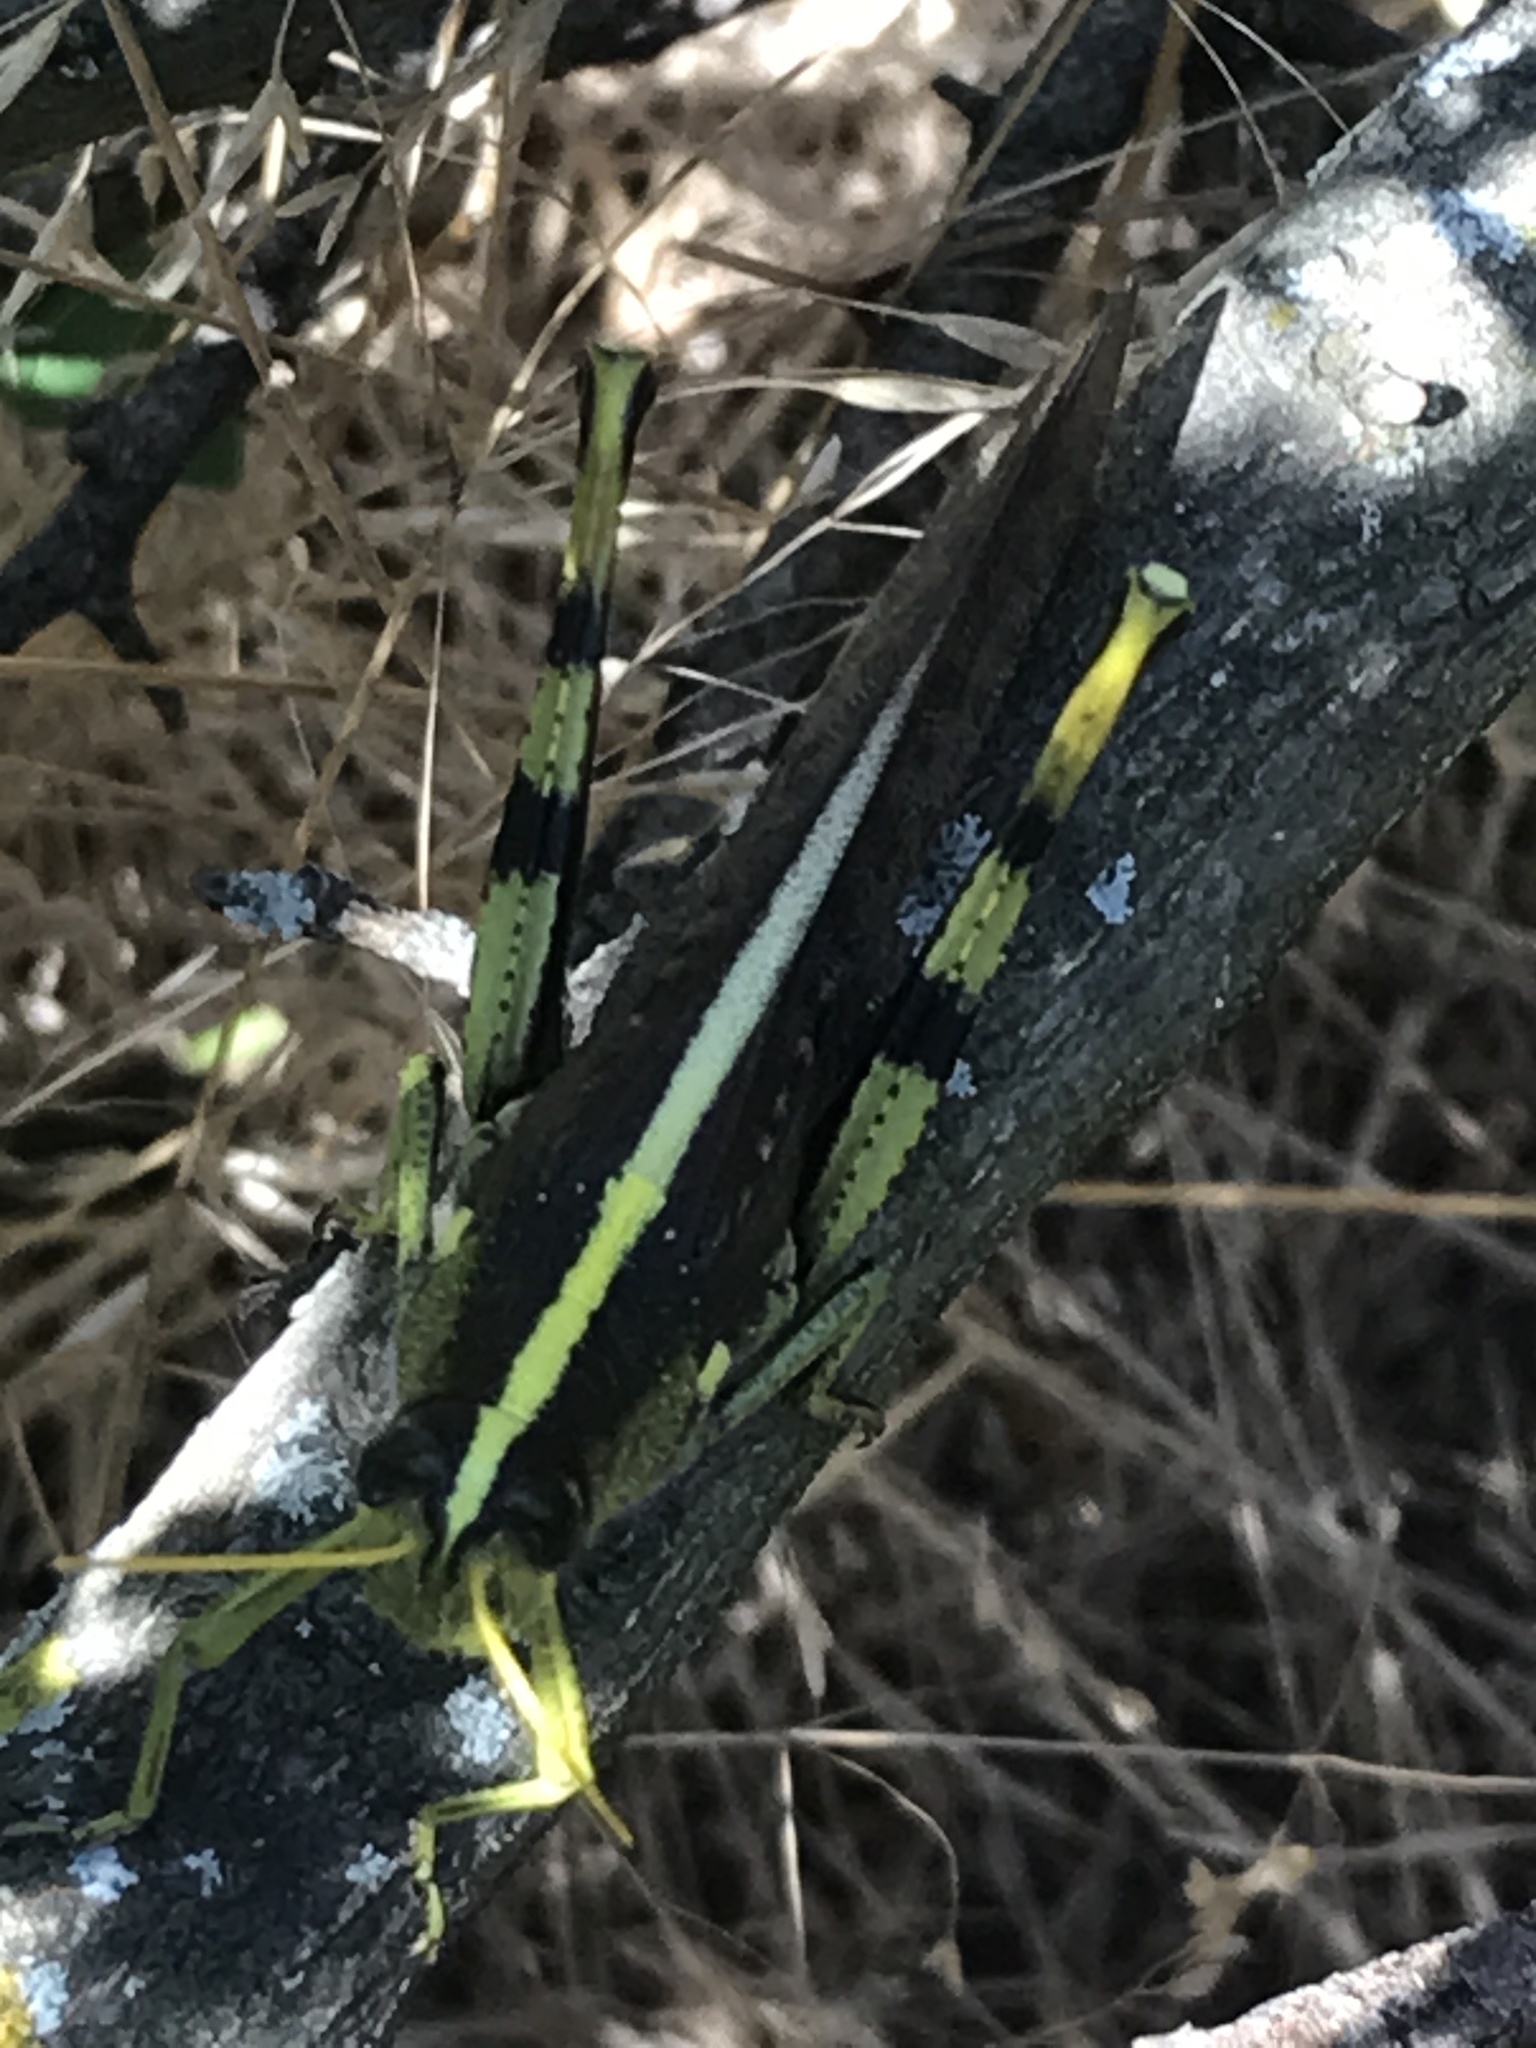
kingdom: Animalia
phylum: Arthropoda
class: Insecta
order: Orthoptera
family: Acrididae
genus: Schistocerca
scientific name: Schistocerca obscura
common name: Obscure bird grasshopper
